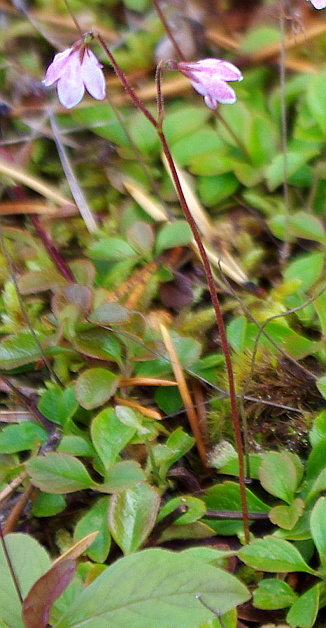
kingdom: Plantae
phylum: Tracheophyta
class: Magnoliopsida
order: Dipsacales
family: Caprifoliaceae
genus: Linnaea
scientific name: Linnaea borealis
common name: Twinflower
